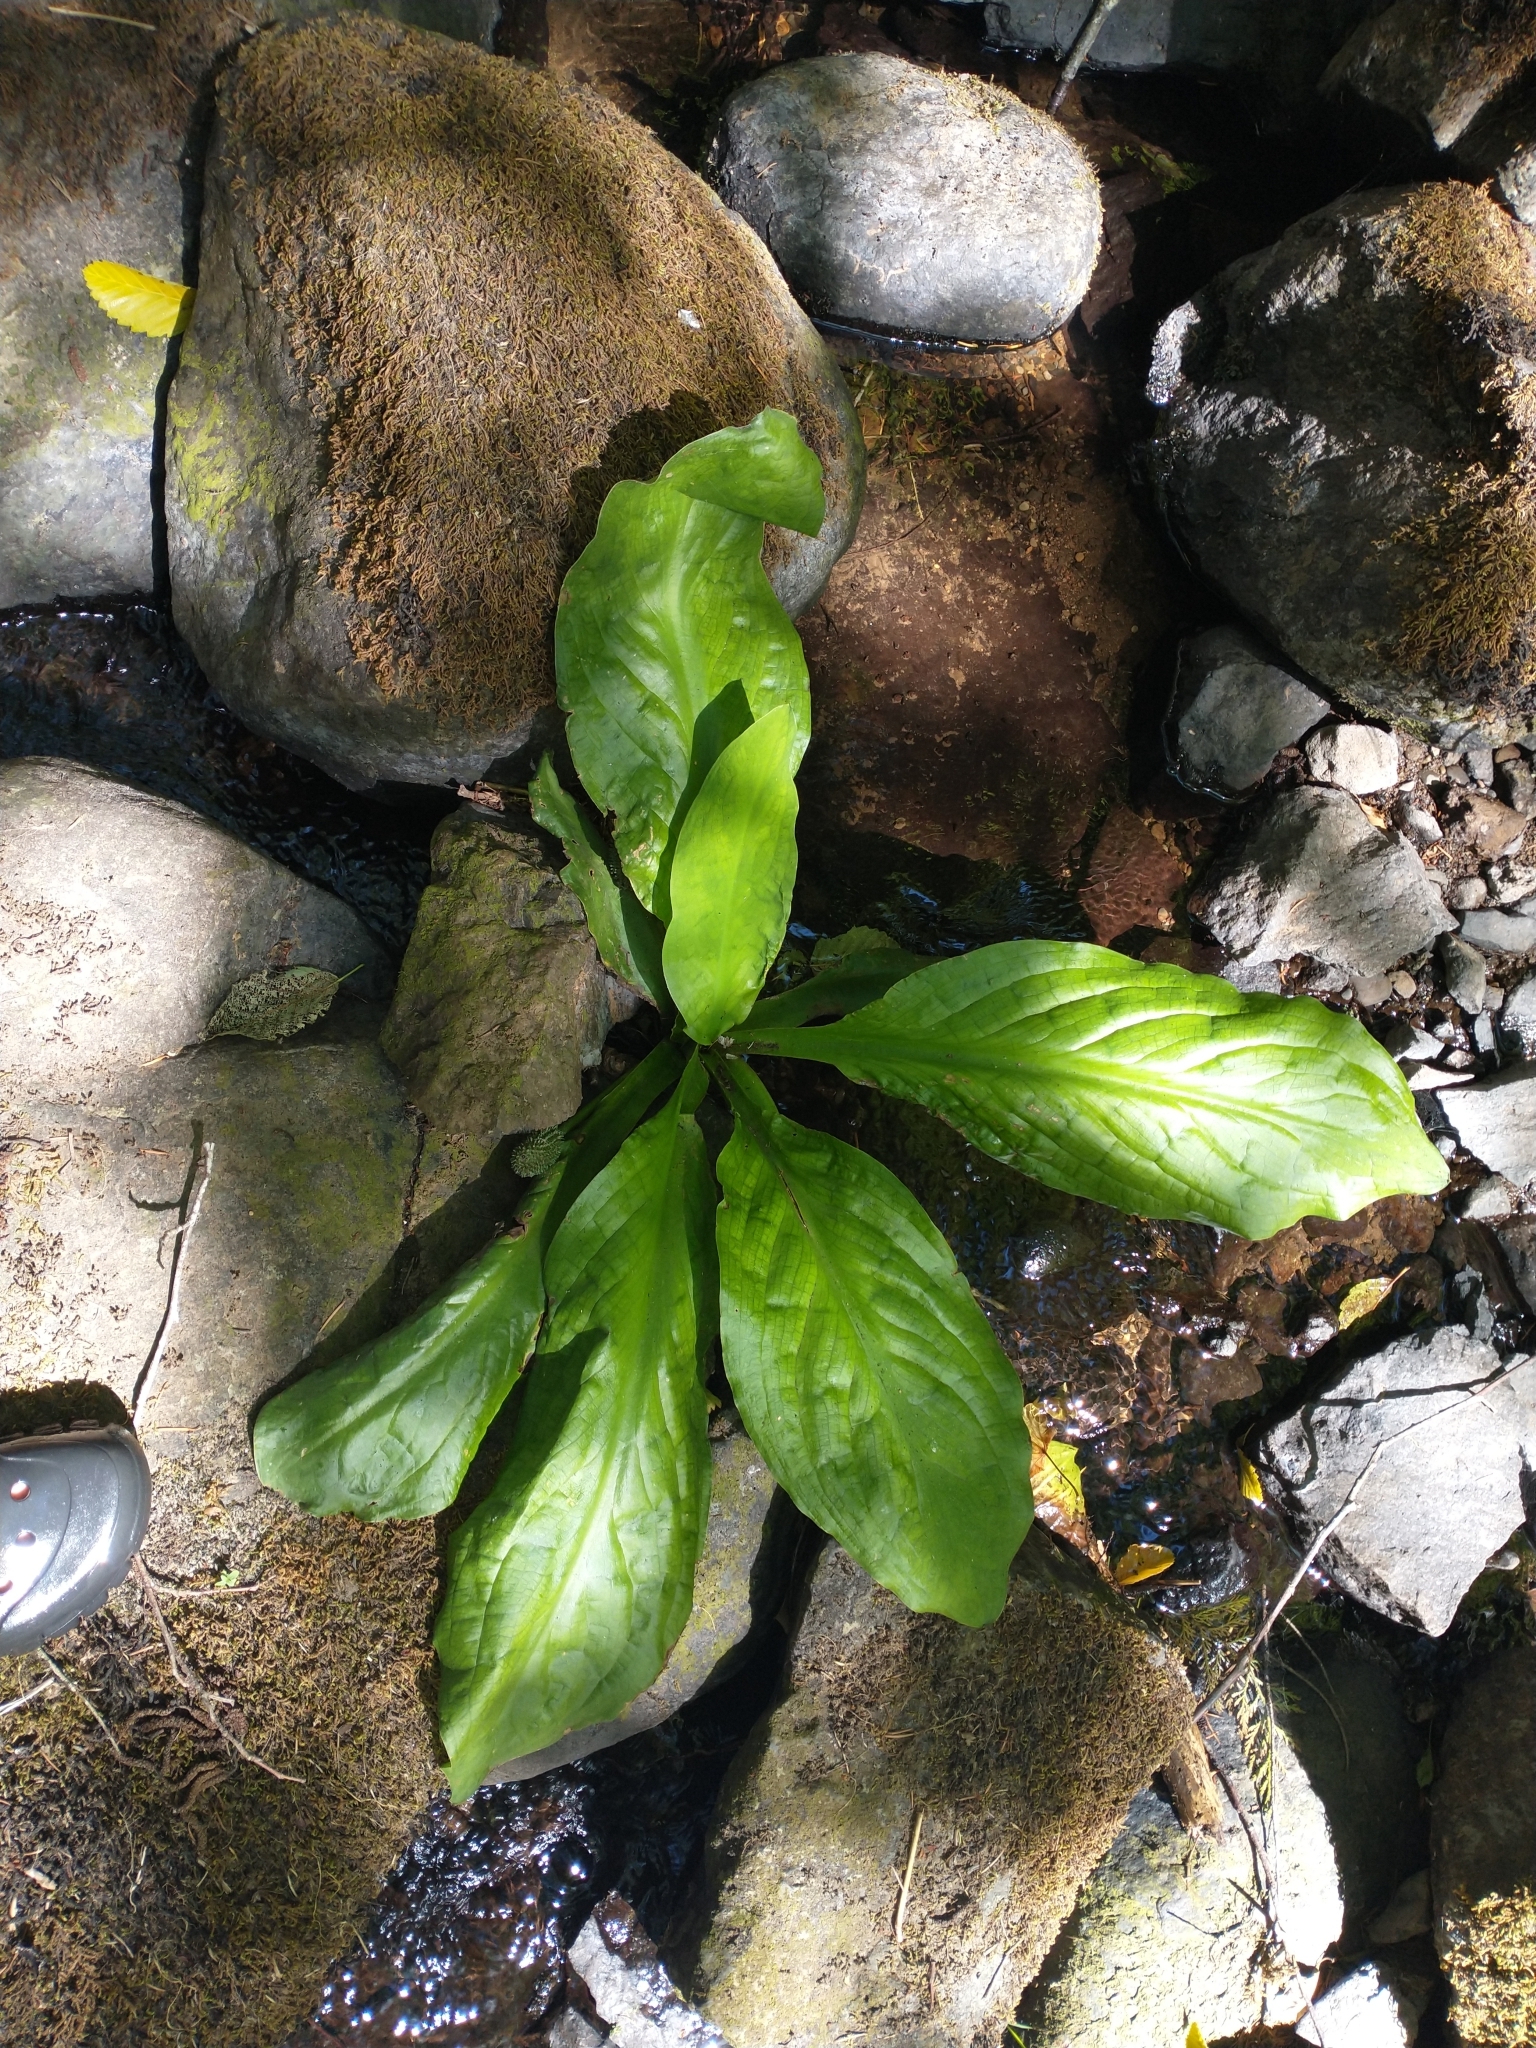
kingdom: Plantae
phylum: Tracheophyta
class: Liliopsida
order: Alismatales
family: Araceae
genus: Lysichiton
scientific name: Lysichiton americanus
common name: American skunk cabbage
